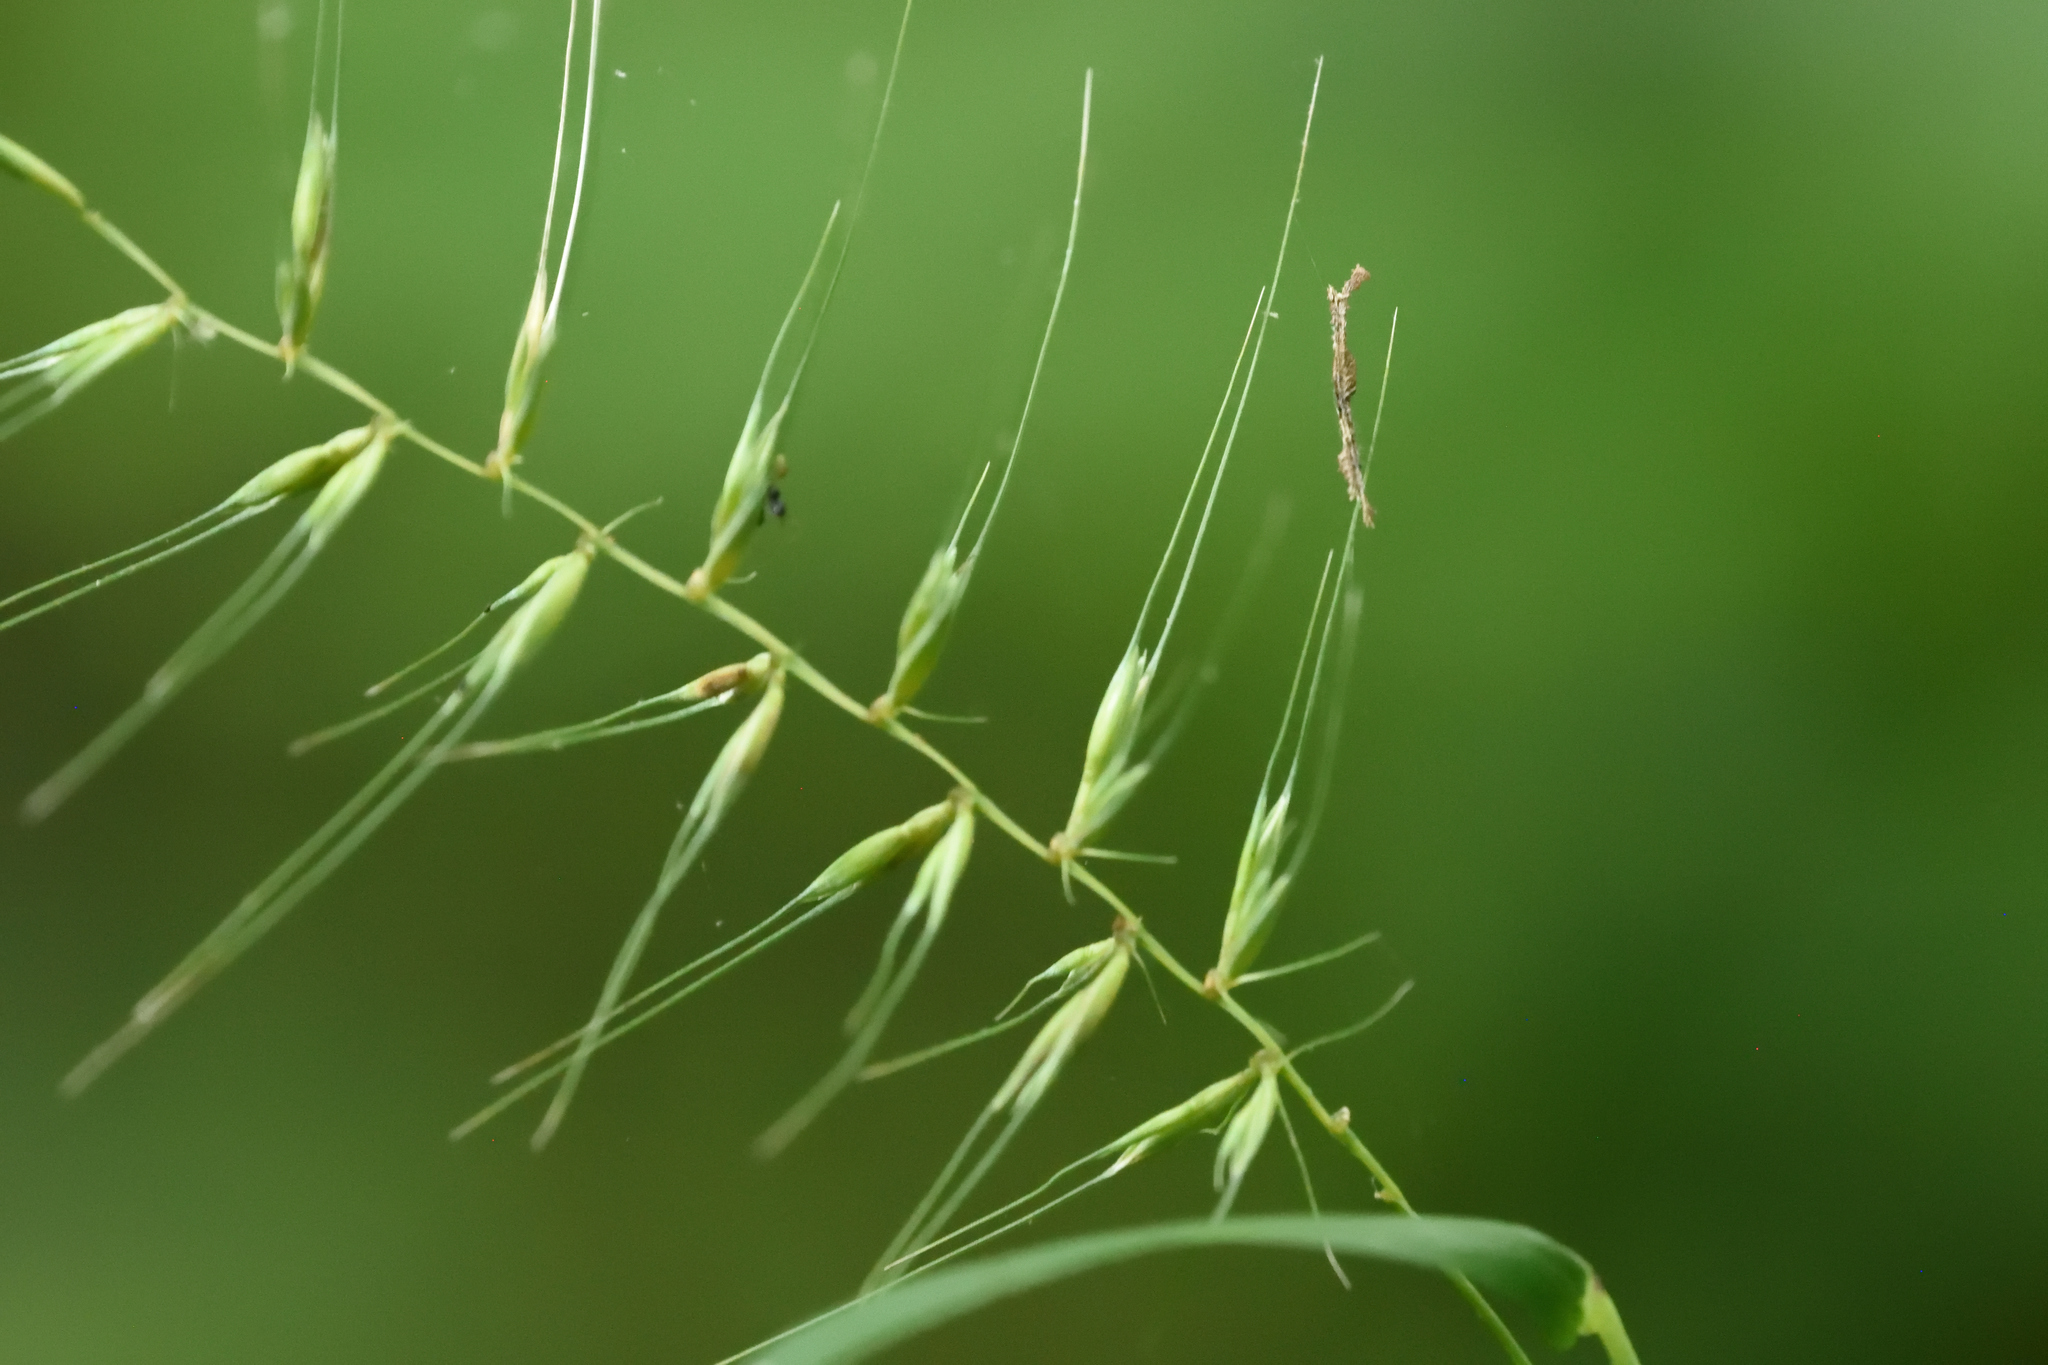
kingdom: Plantae
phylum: Tracheophyta
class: Liliopsida
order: Poales
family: Poaceae
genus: Elymus
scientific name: Elymus hystrix
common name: Bottlebrush grass
